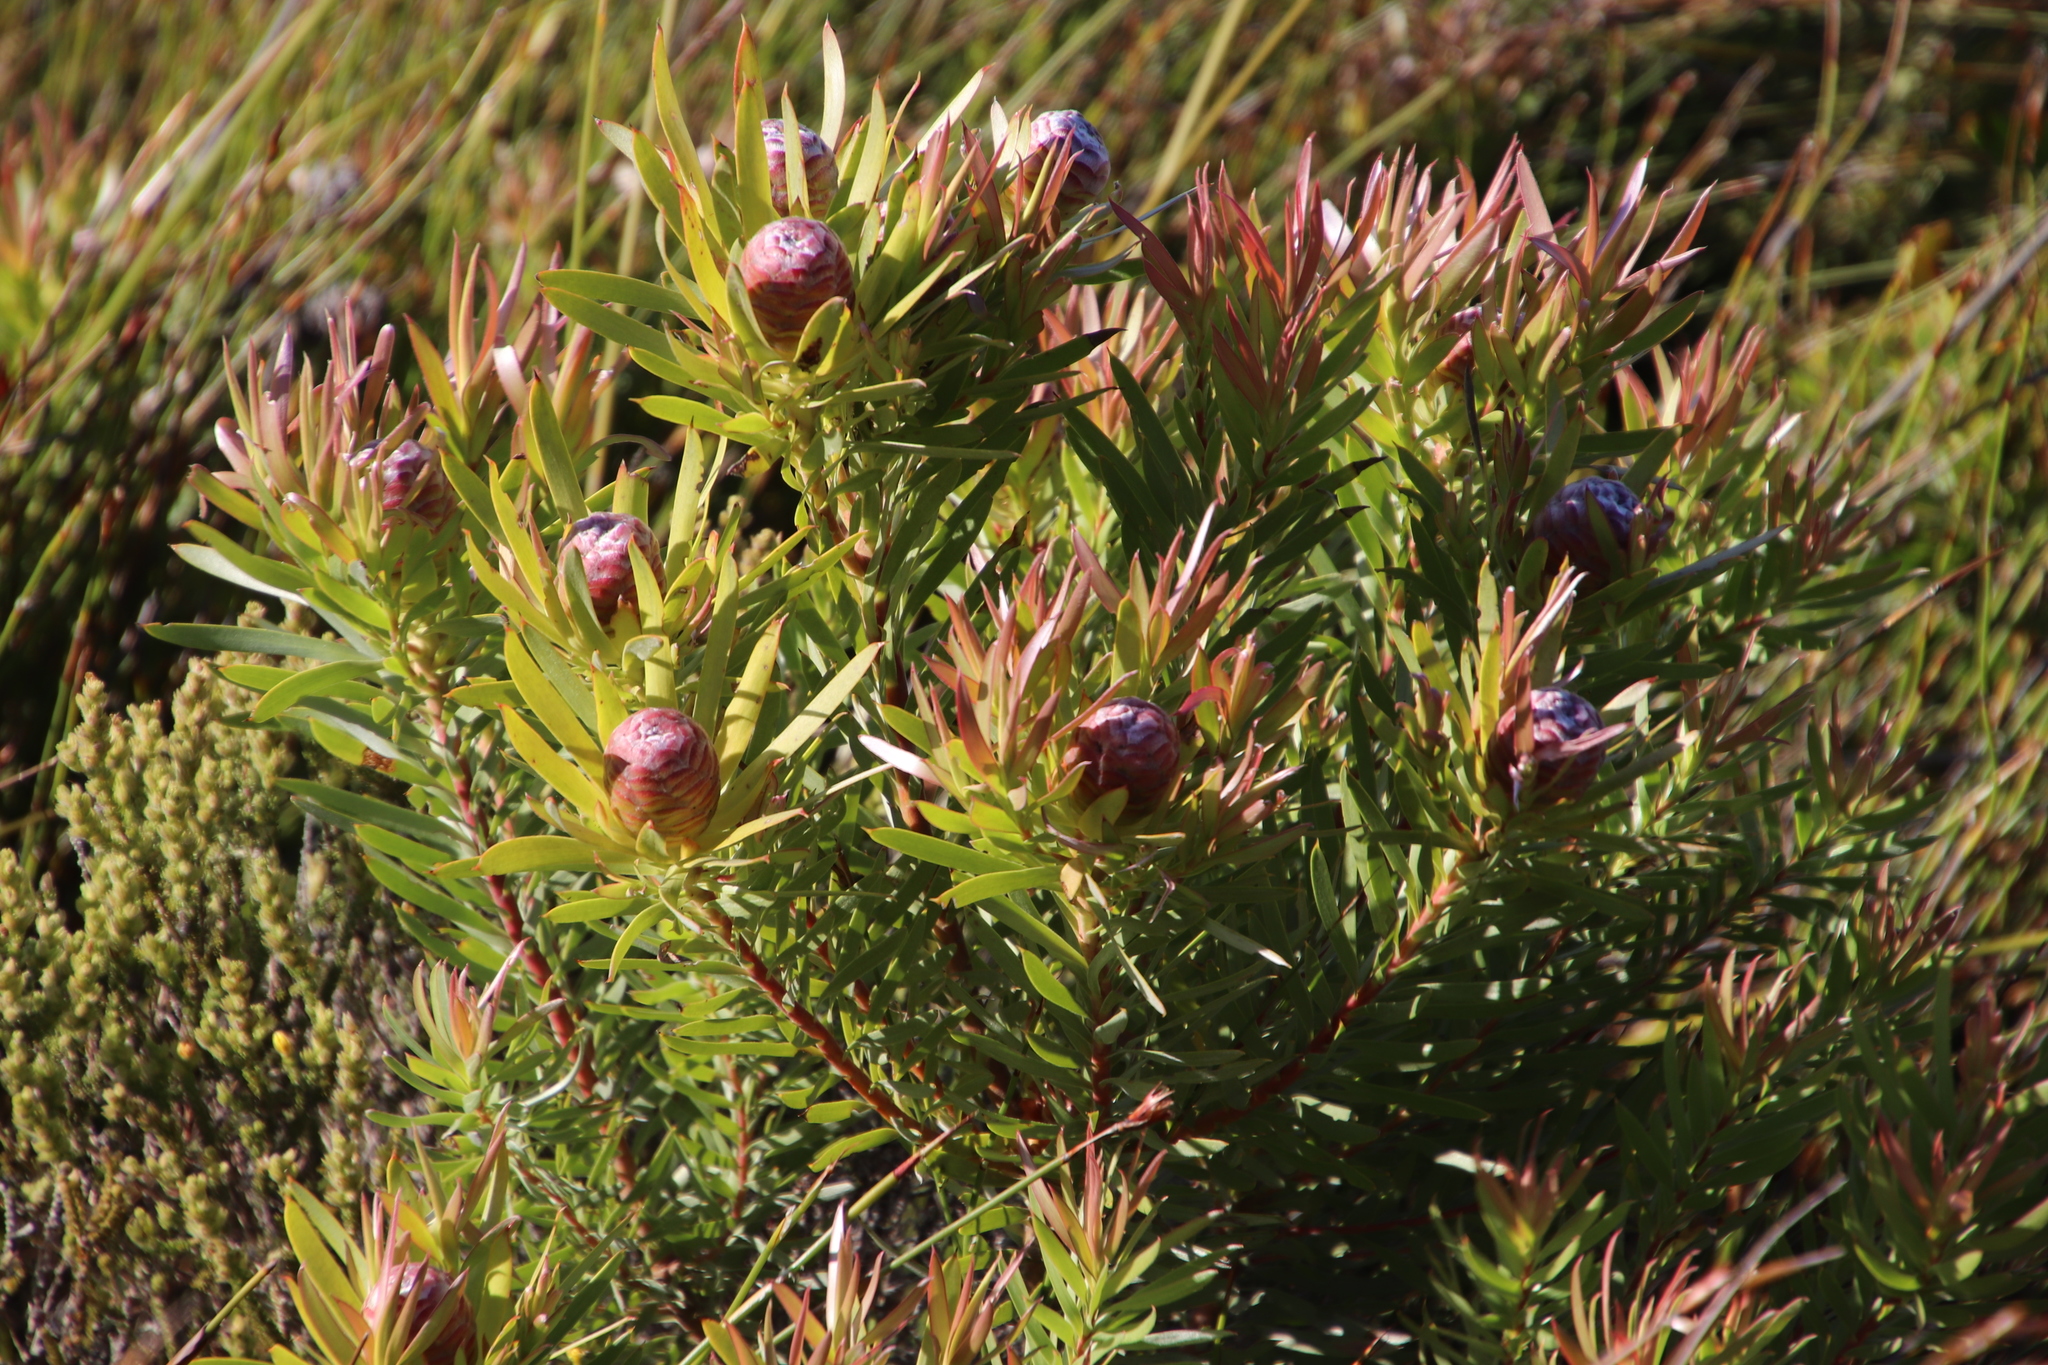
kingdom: Plantae
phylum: Tracheophyta
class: Magnoliopsida
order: Proteales
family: Proteaceae
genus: Leucadendron
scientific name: Leucadendron xanthoconus
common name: Sickle-leaf conebush
